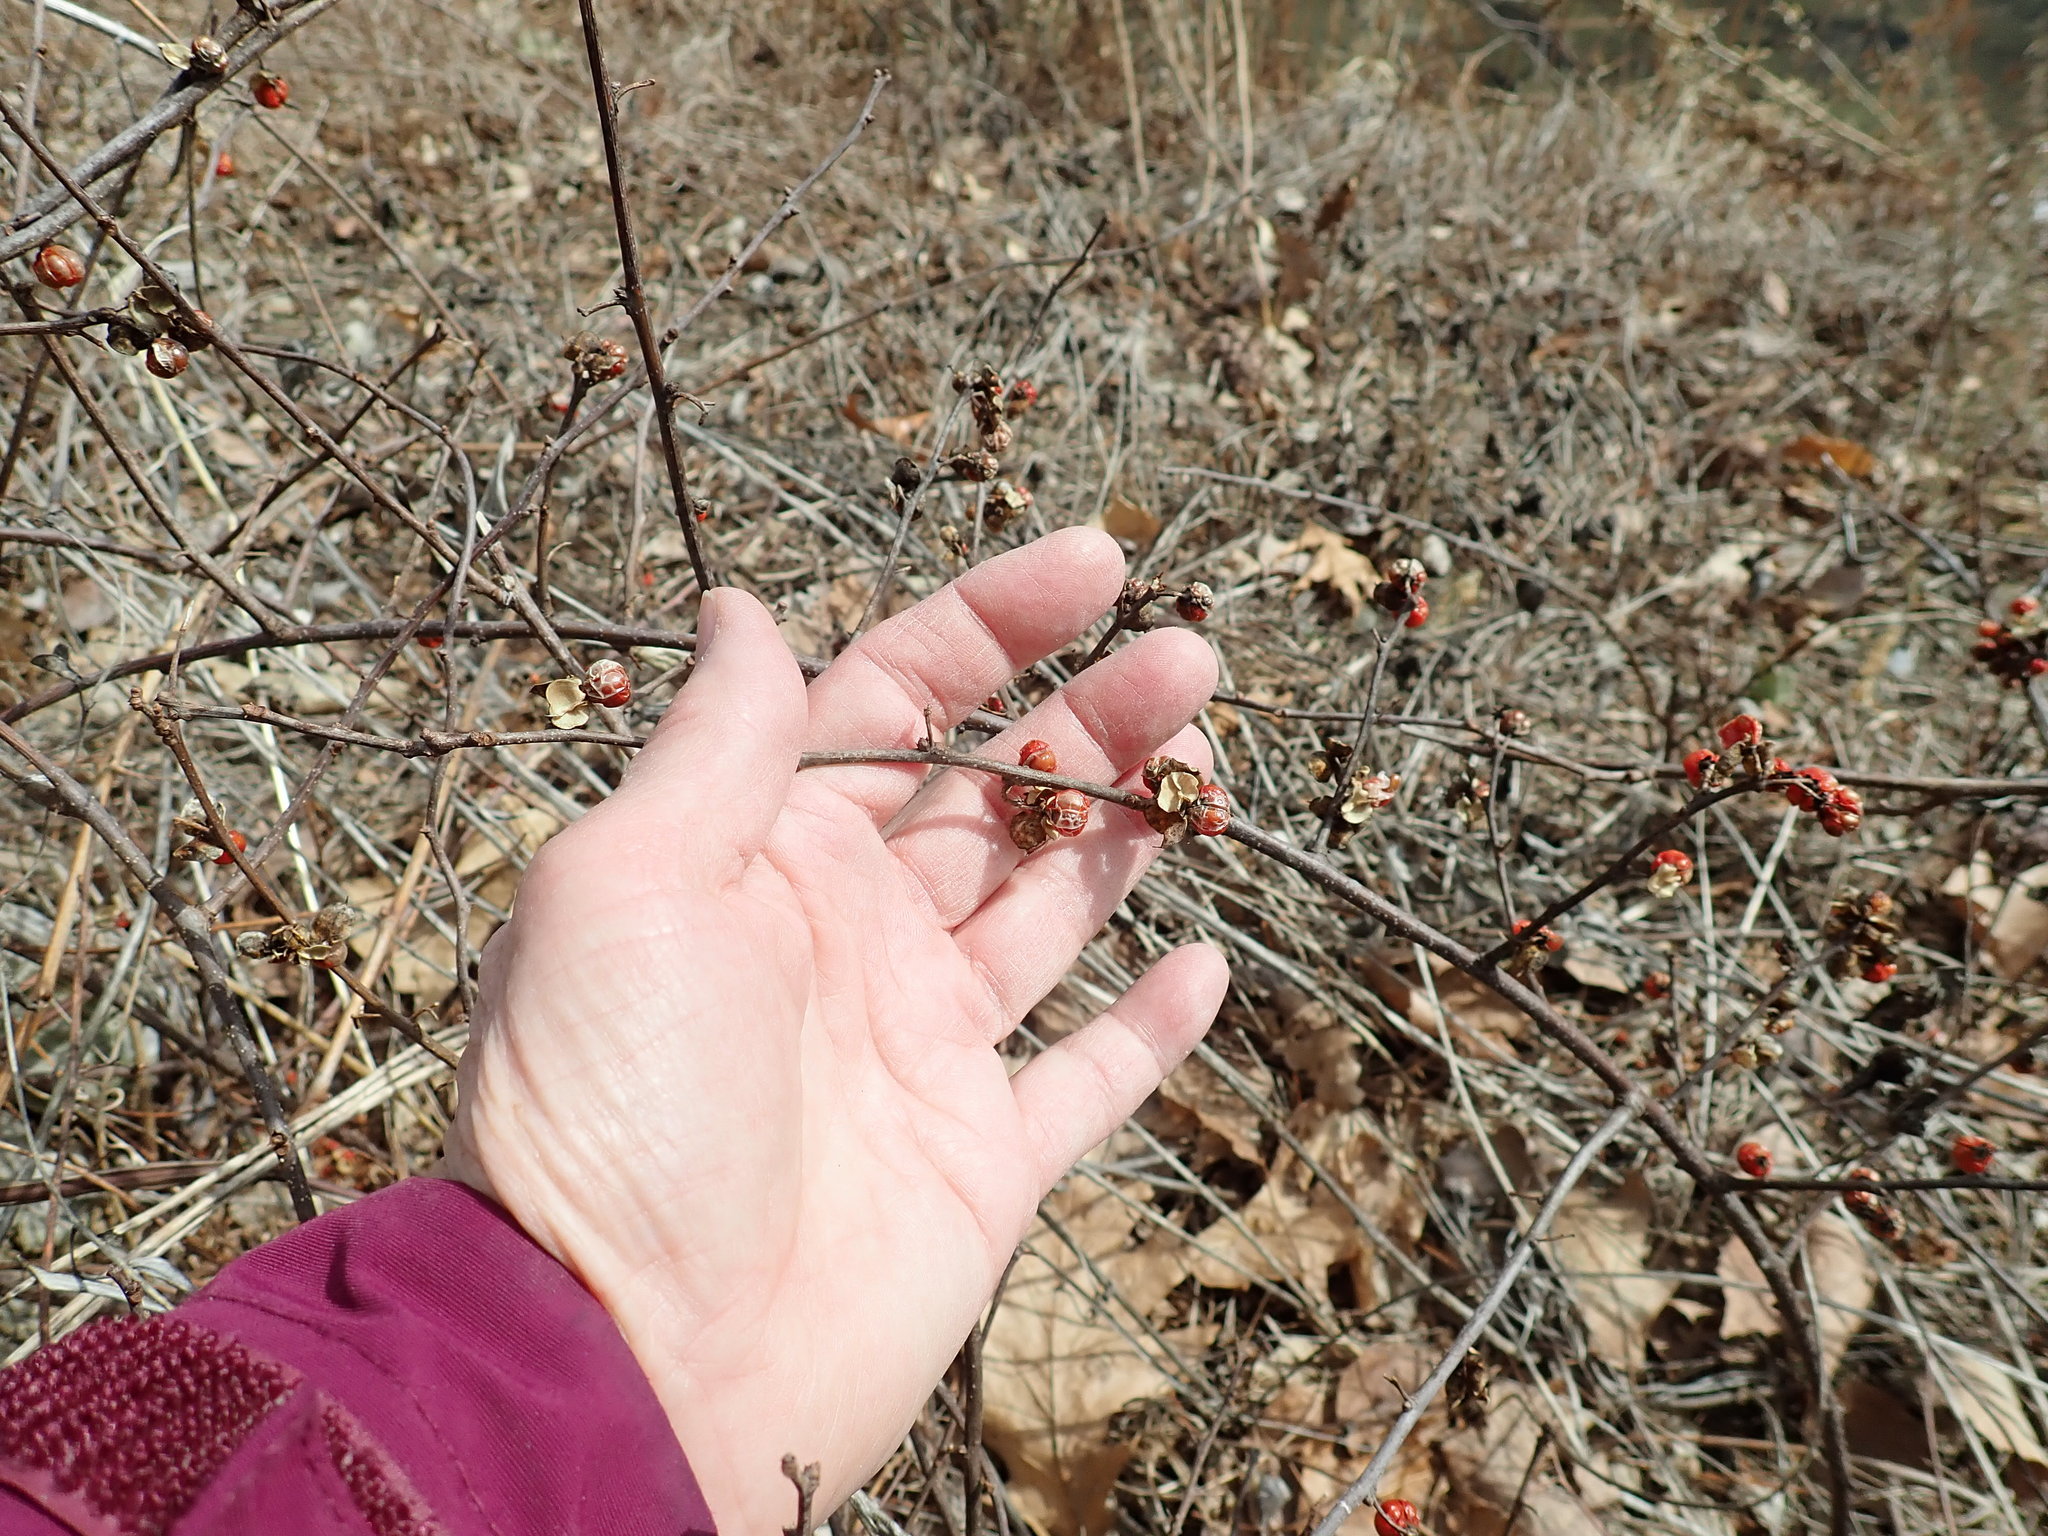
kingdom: Plantae
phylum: Tracheophyta
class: Magnoliopsida
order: Celastrales
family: Celastraceae
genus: Celastrus
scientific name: Celastrus orbiculatus
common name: Oriental bittersweet
